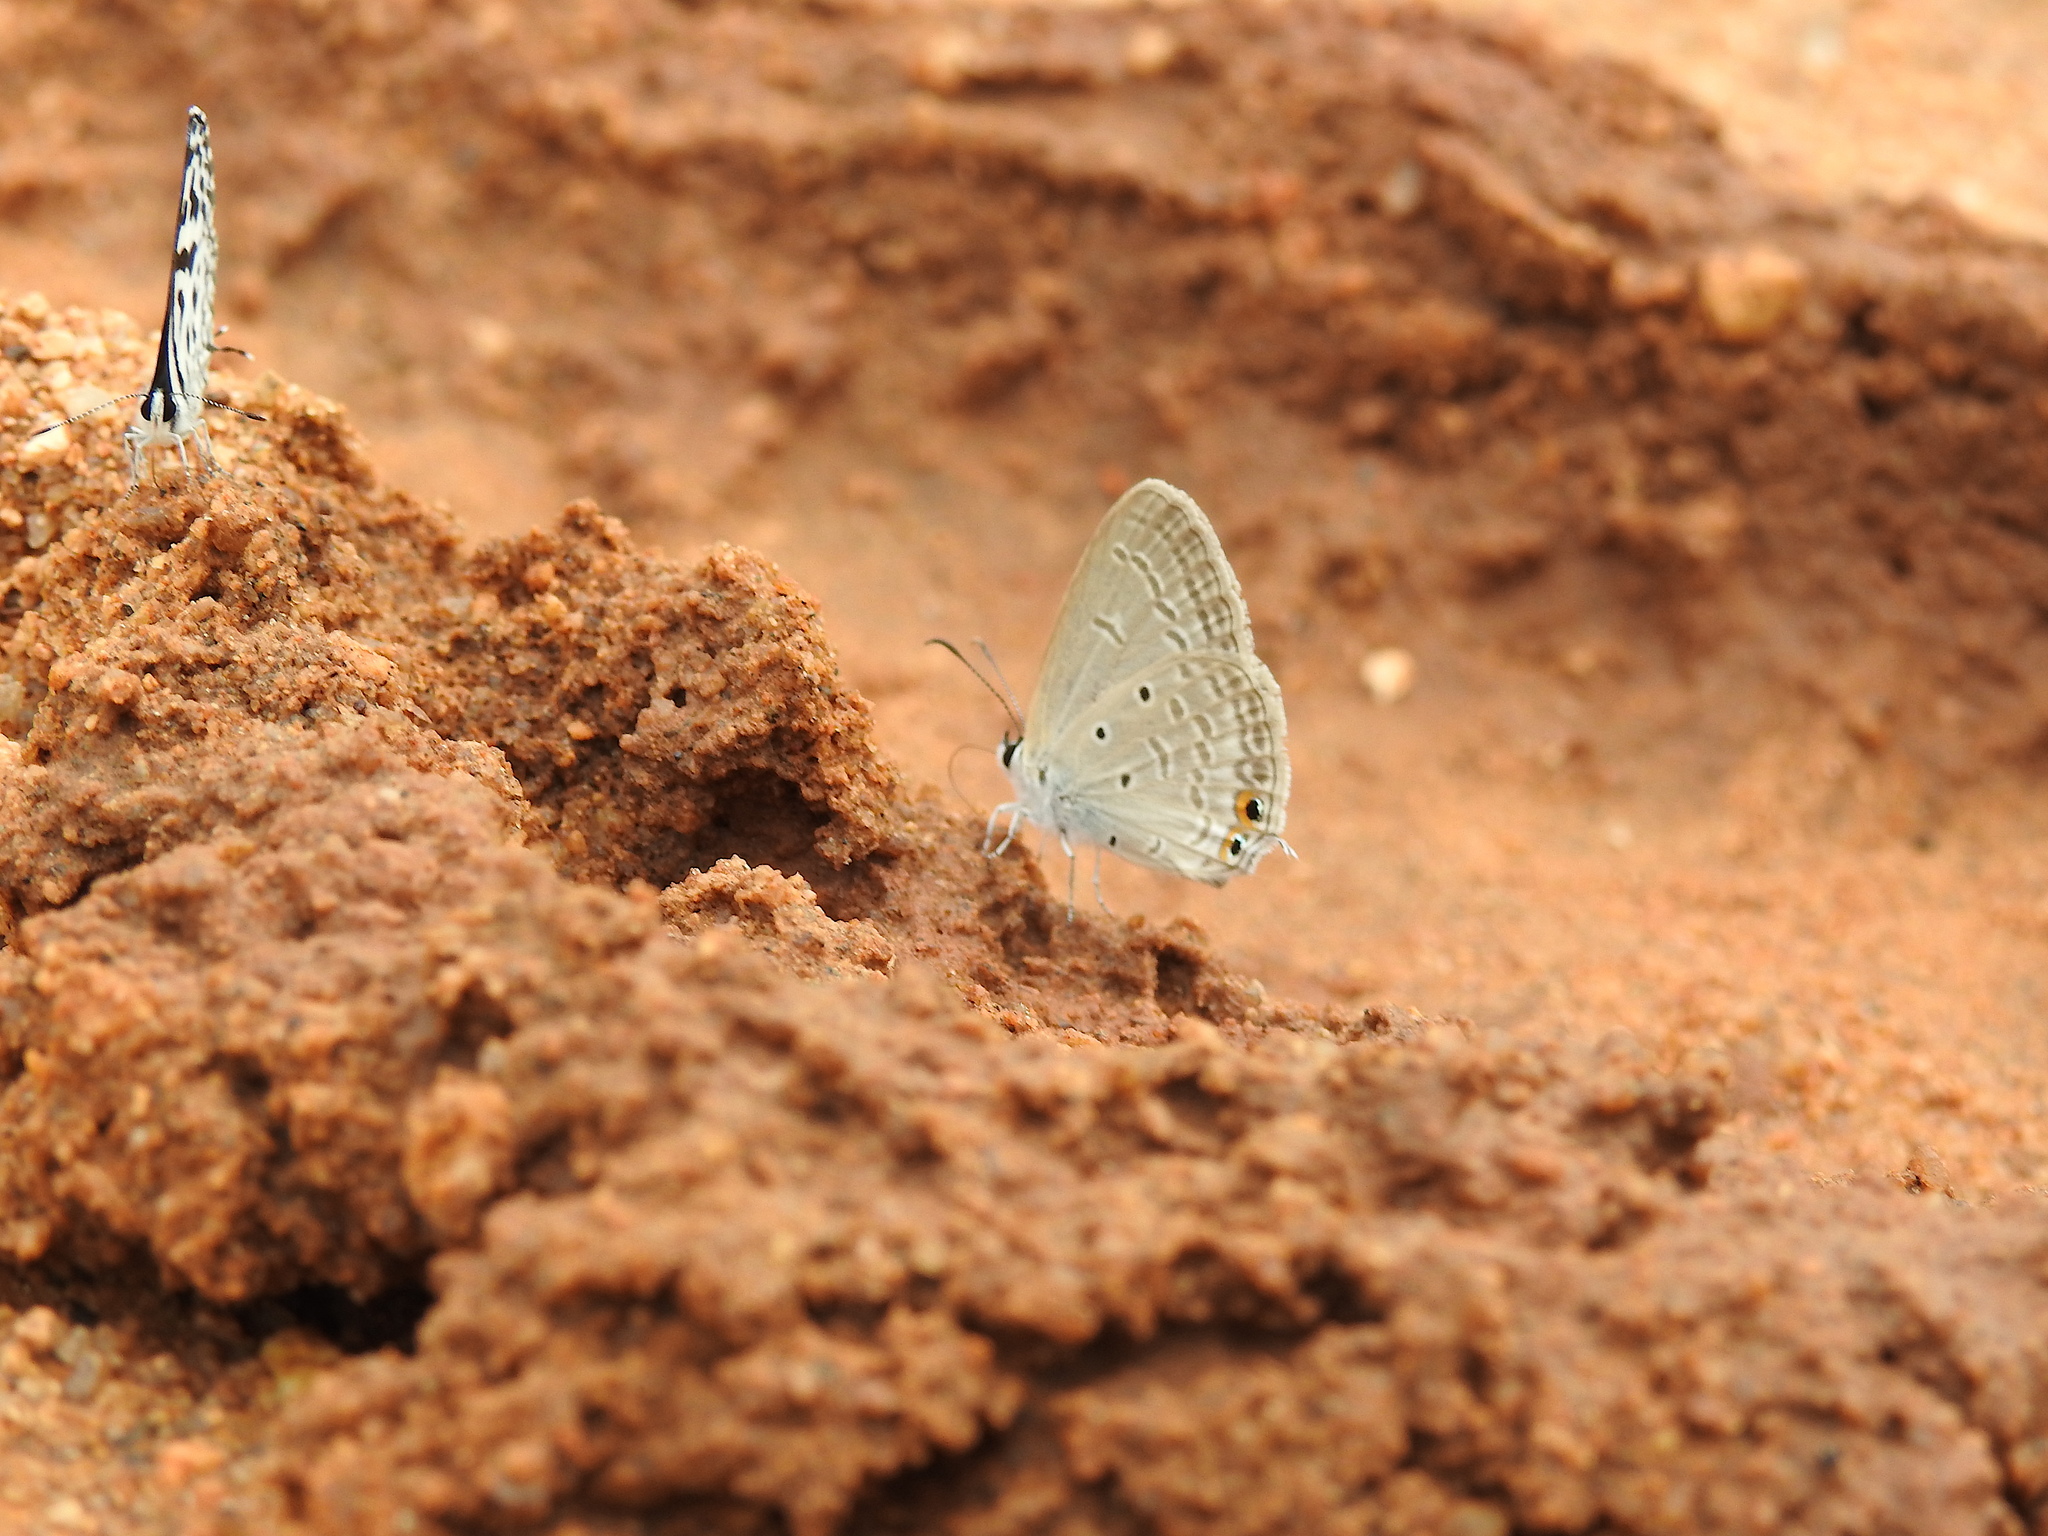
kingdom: Animalia
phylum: Arthropoda
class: Insecta
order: Lepidoptera
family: Lycaenidae
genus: Euchrysops
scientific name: Euchrysops cnejus
